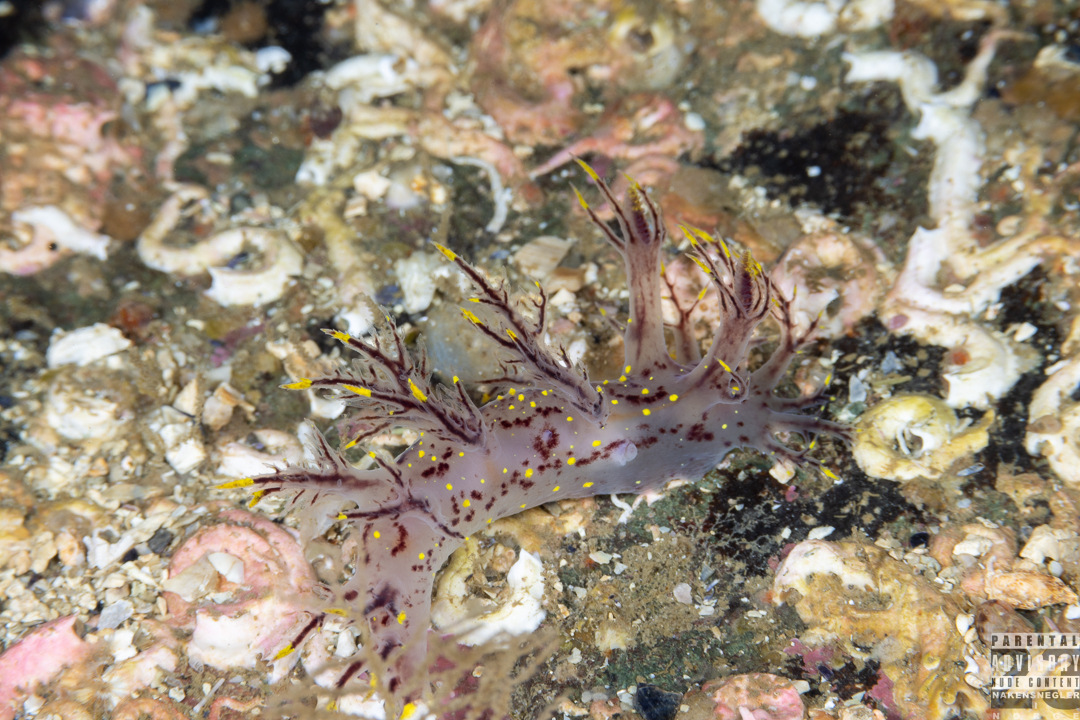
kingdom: Animalia
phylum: Mollusca
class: Gastropoda
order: Nudibranchia
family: Dendronotidae
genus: Dendronotus
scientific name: Dendronotus arcticus
